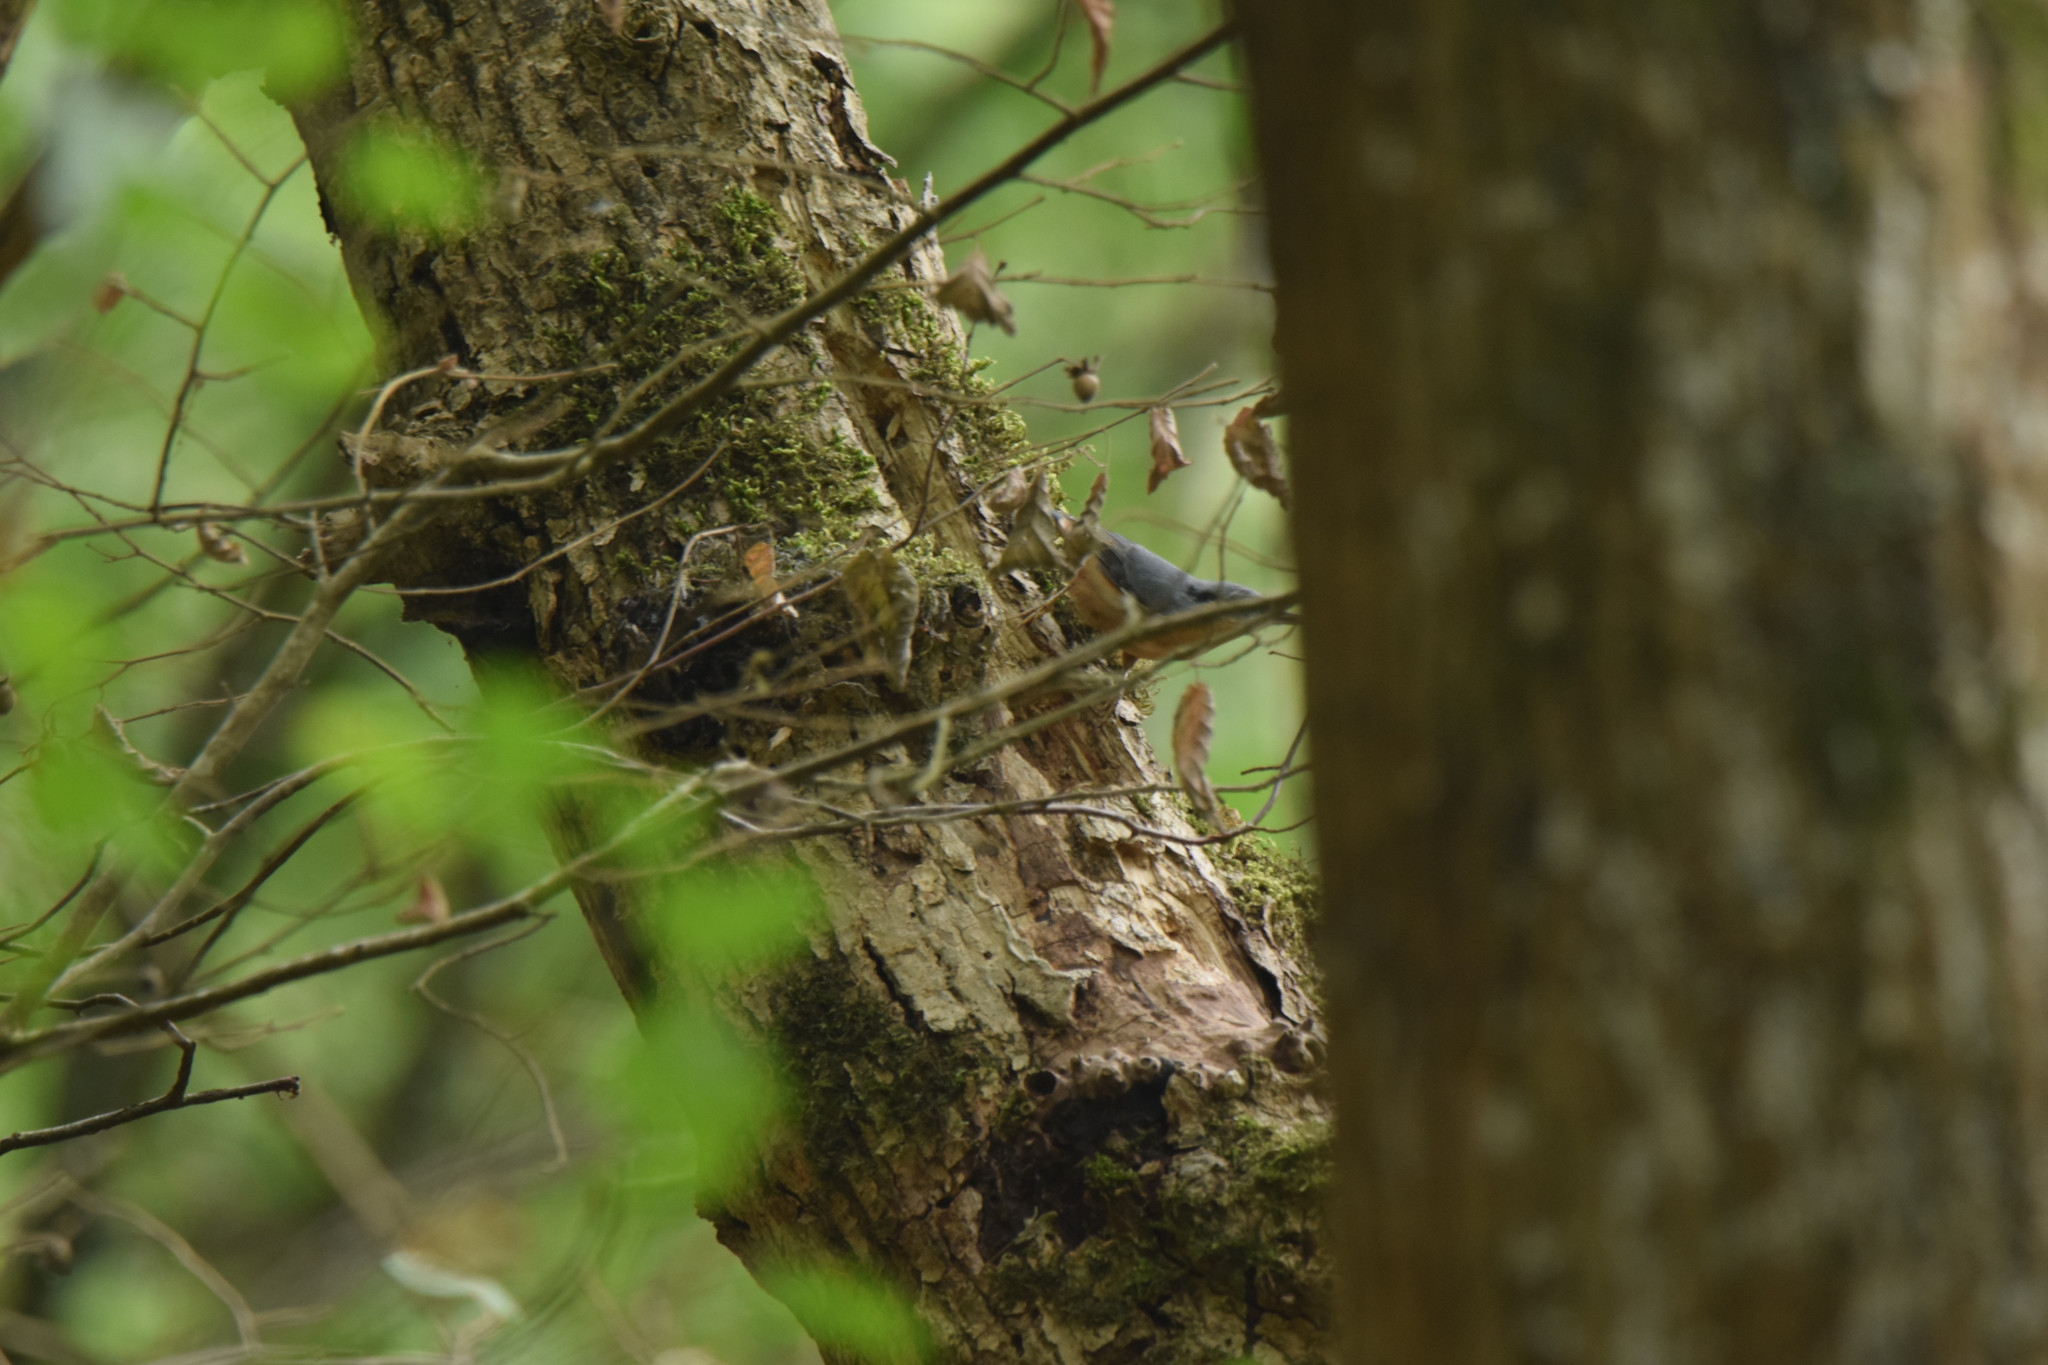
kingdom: Animalia
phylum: Chordata
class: Aves
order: Passeriformes
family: Sittidae
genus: Sitta
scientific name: Sitta europaea
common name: Eurasian nuthatch
